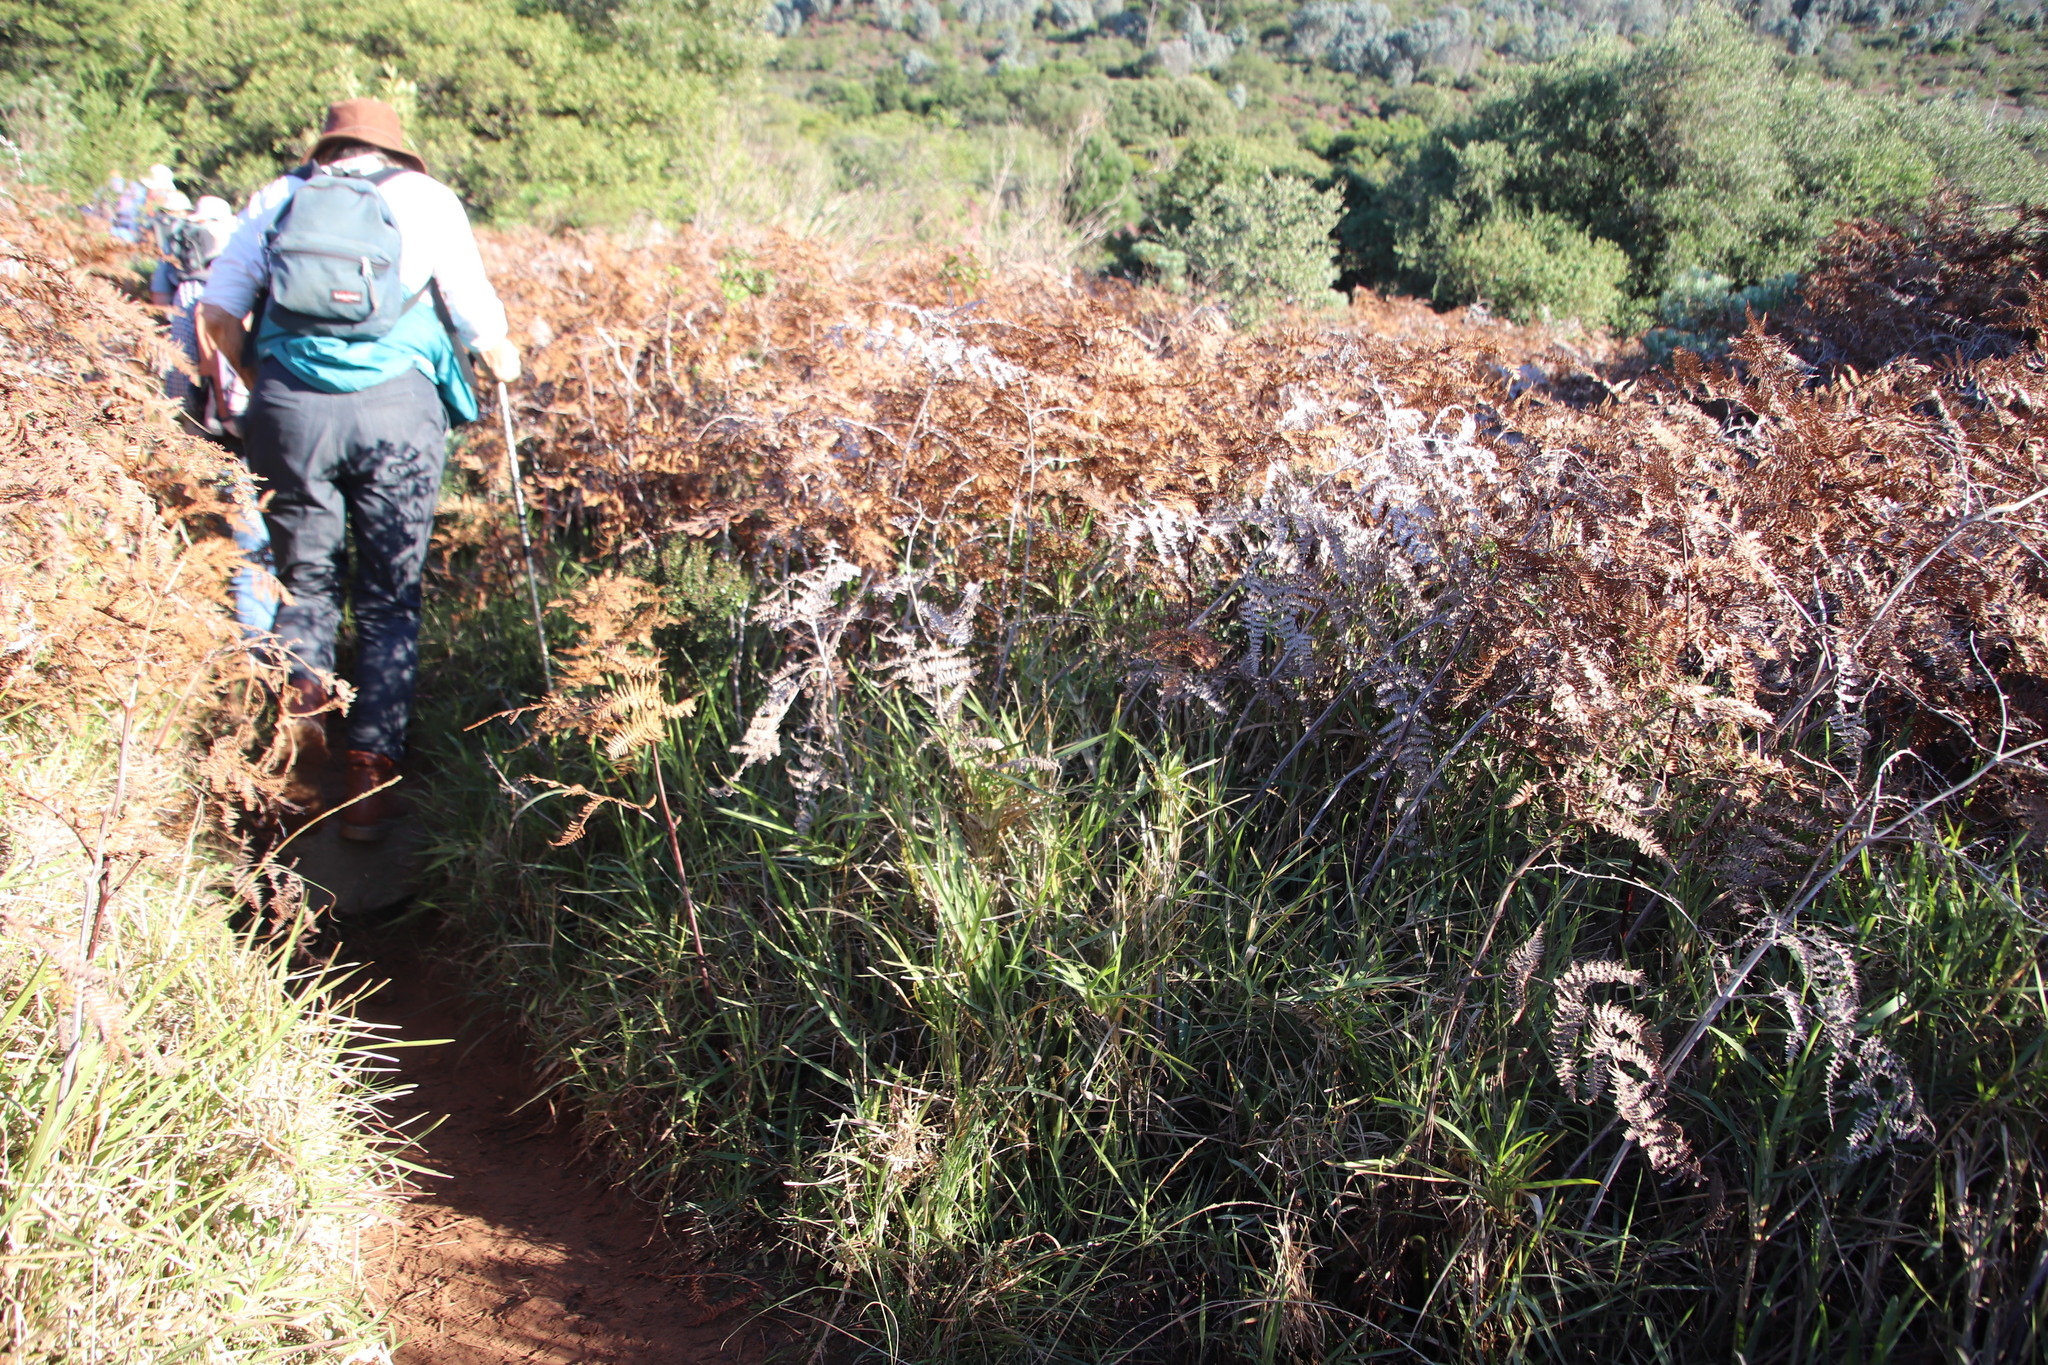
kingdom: Plantae
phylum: Tracheophyta
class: Liliopsida
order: Poales
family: Poaceae
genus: Stenotaphrum
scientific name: Stenotaphrum secundatum
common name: St. augustine grass
